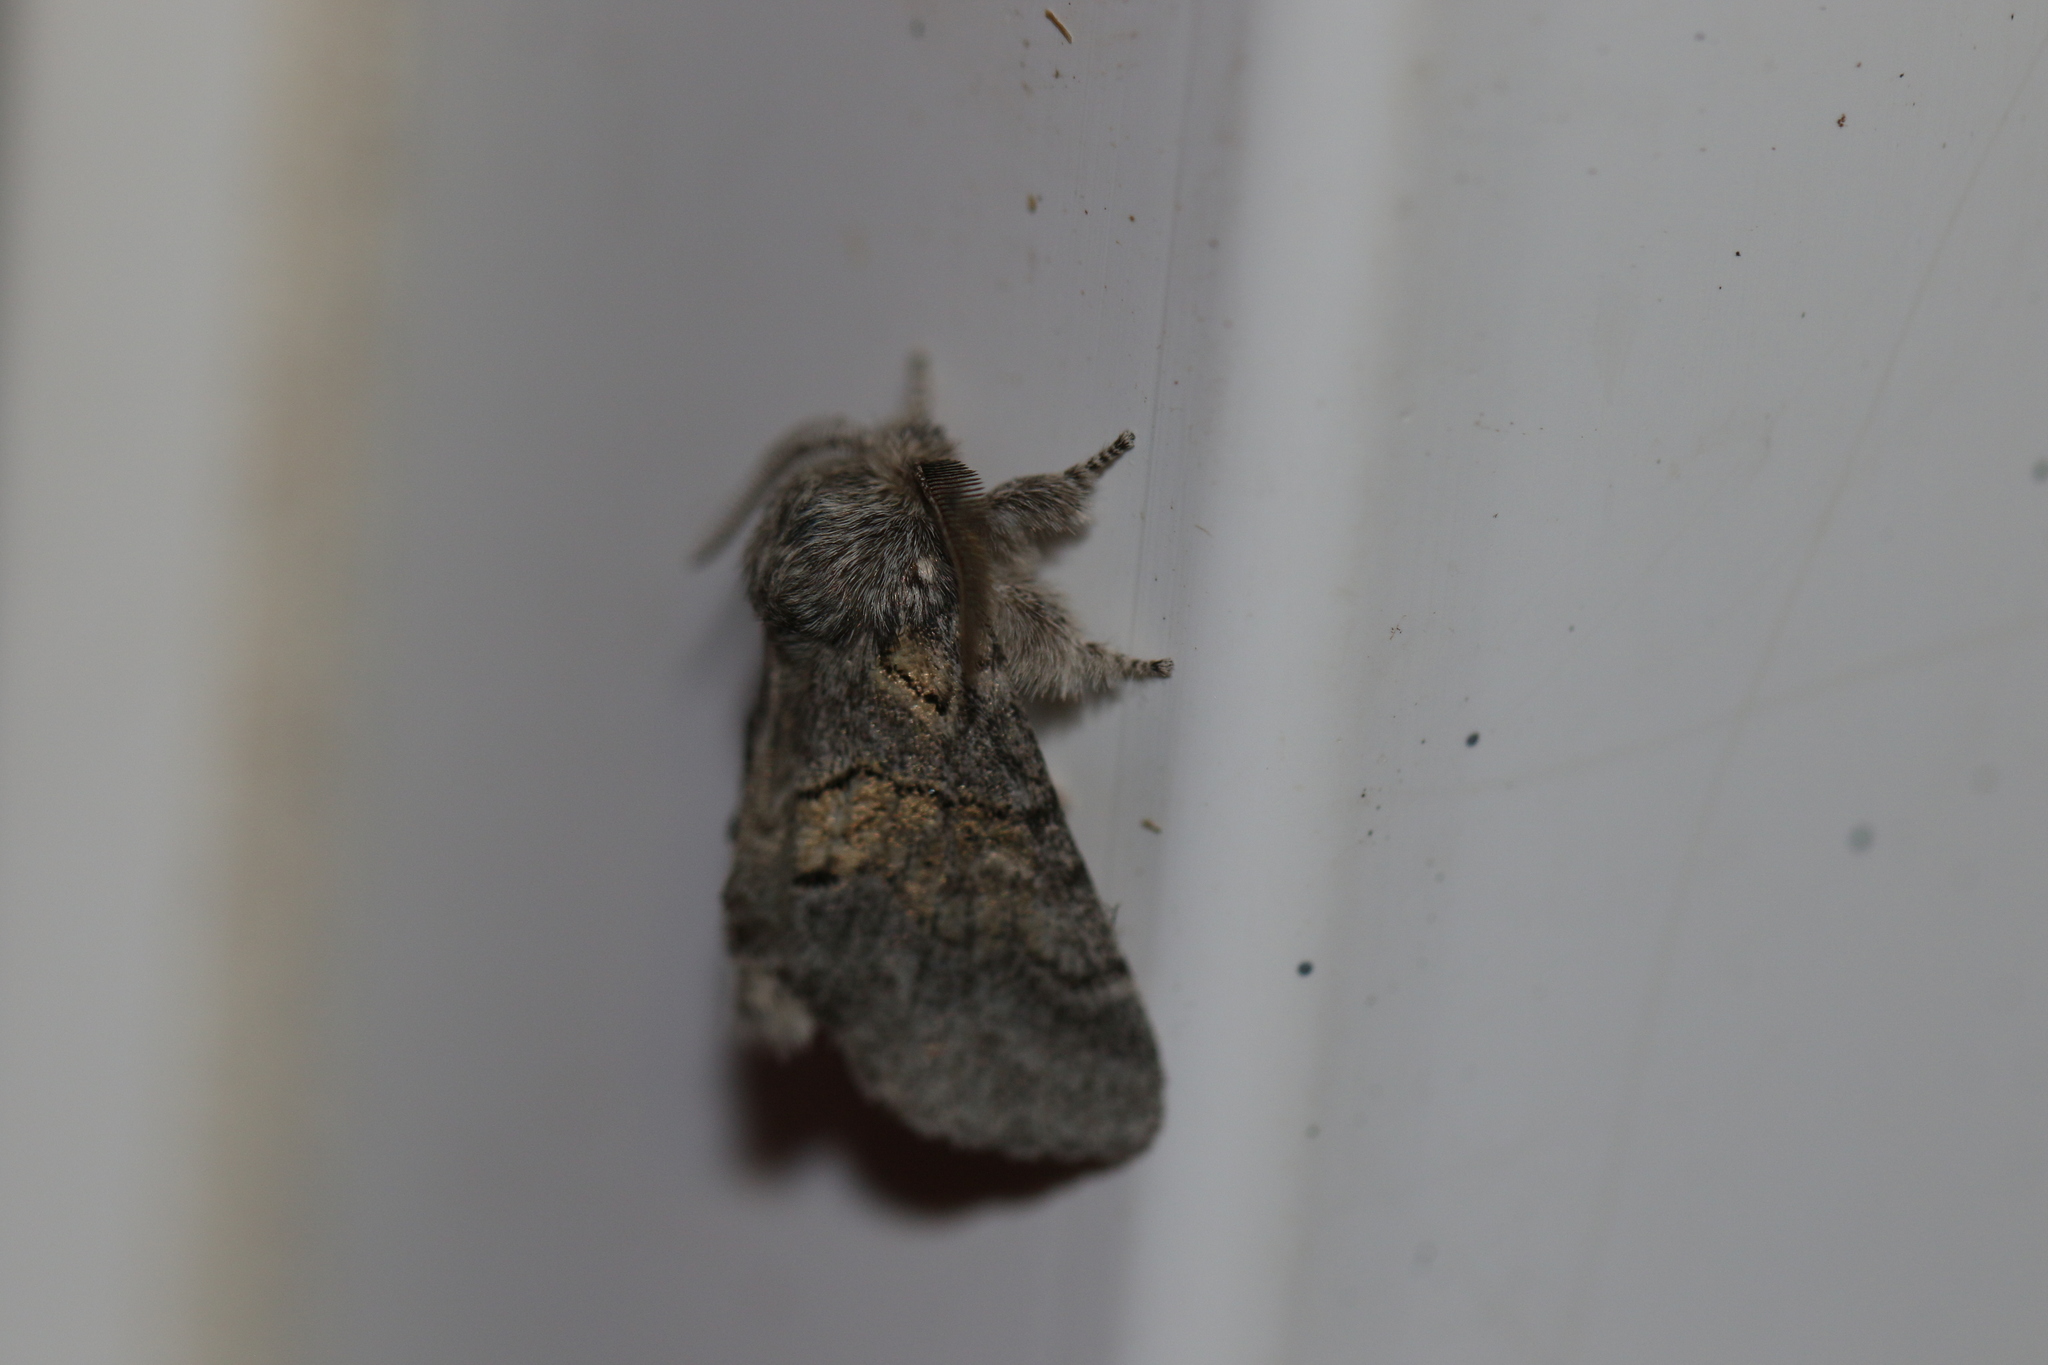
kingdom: Animalia
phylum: Arthropoda
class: Insecta
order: Lepidoptera
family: Notodontidae
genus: Gluphisia
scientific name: Gluphisia septentrionis
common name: Common gluphisia
